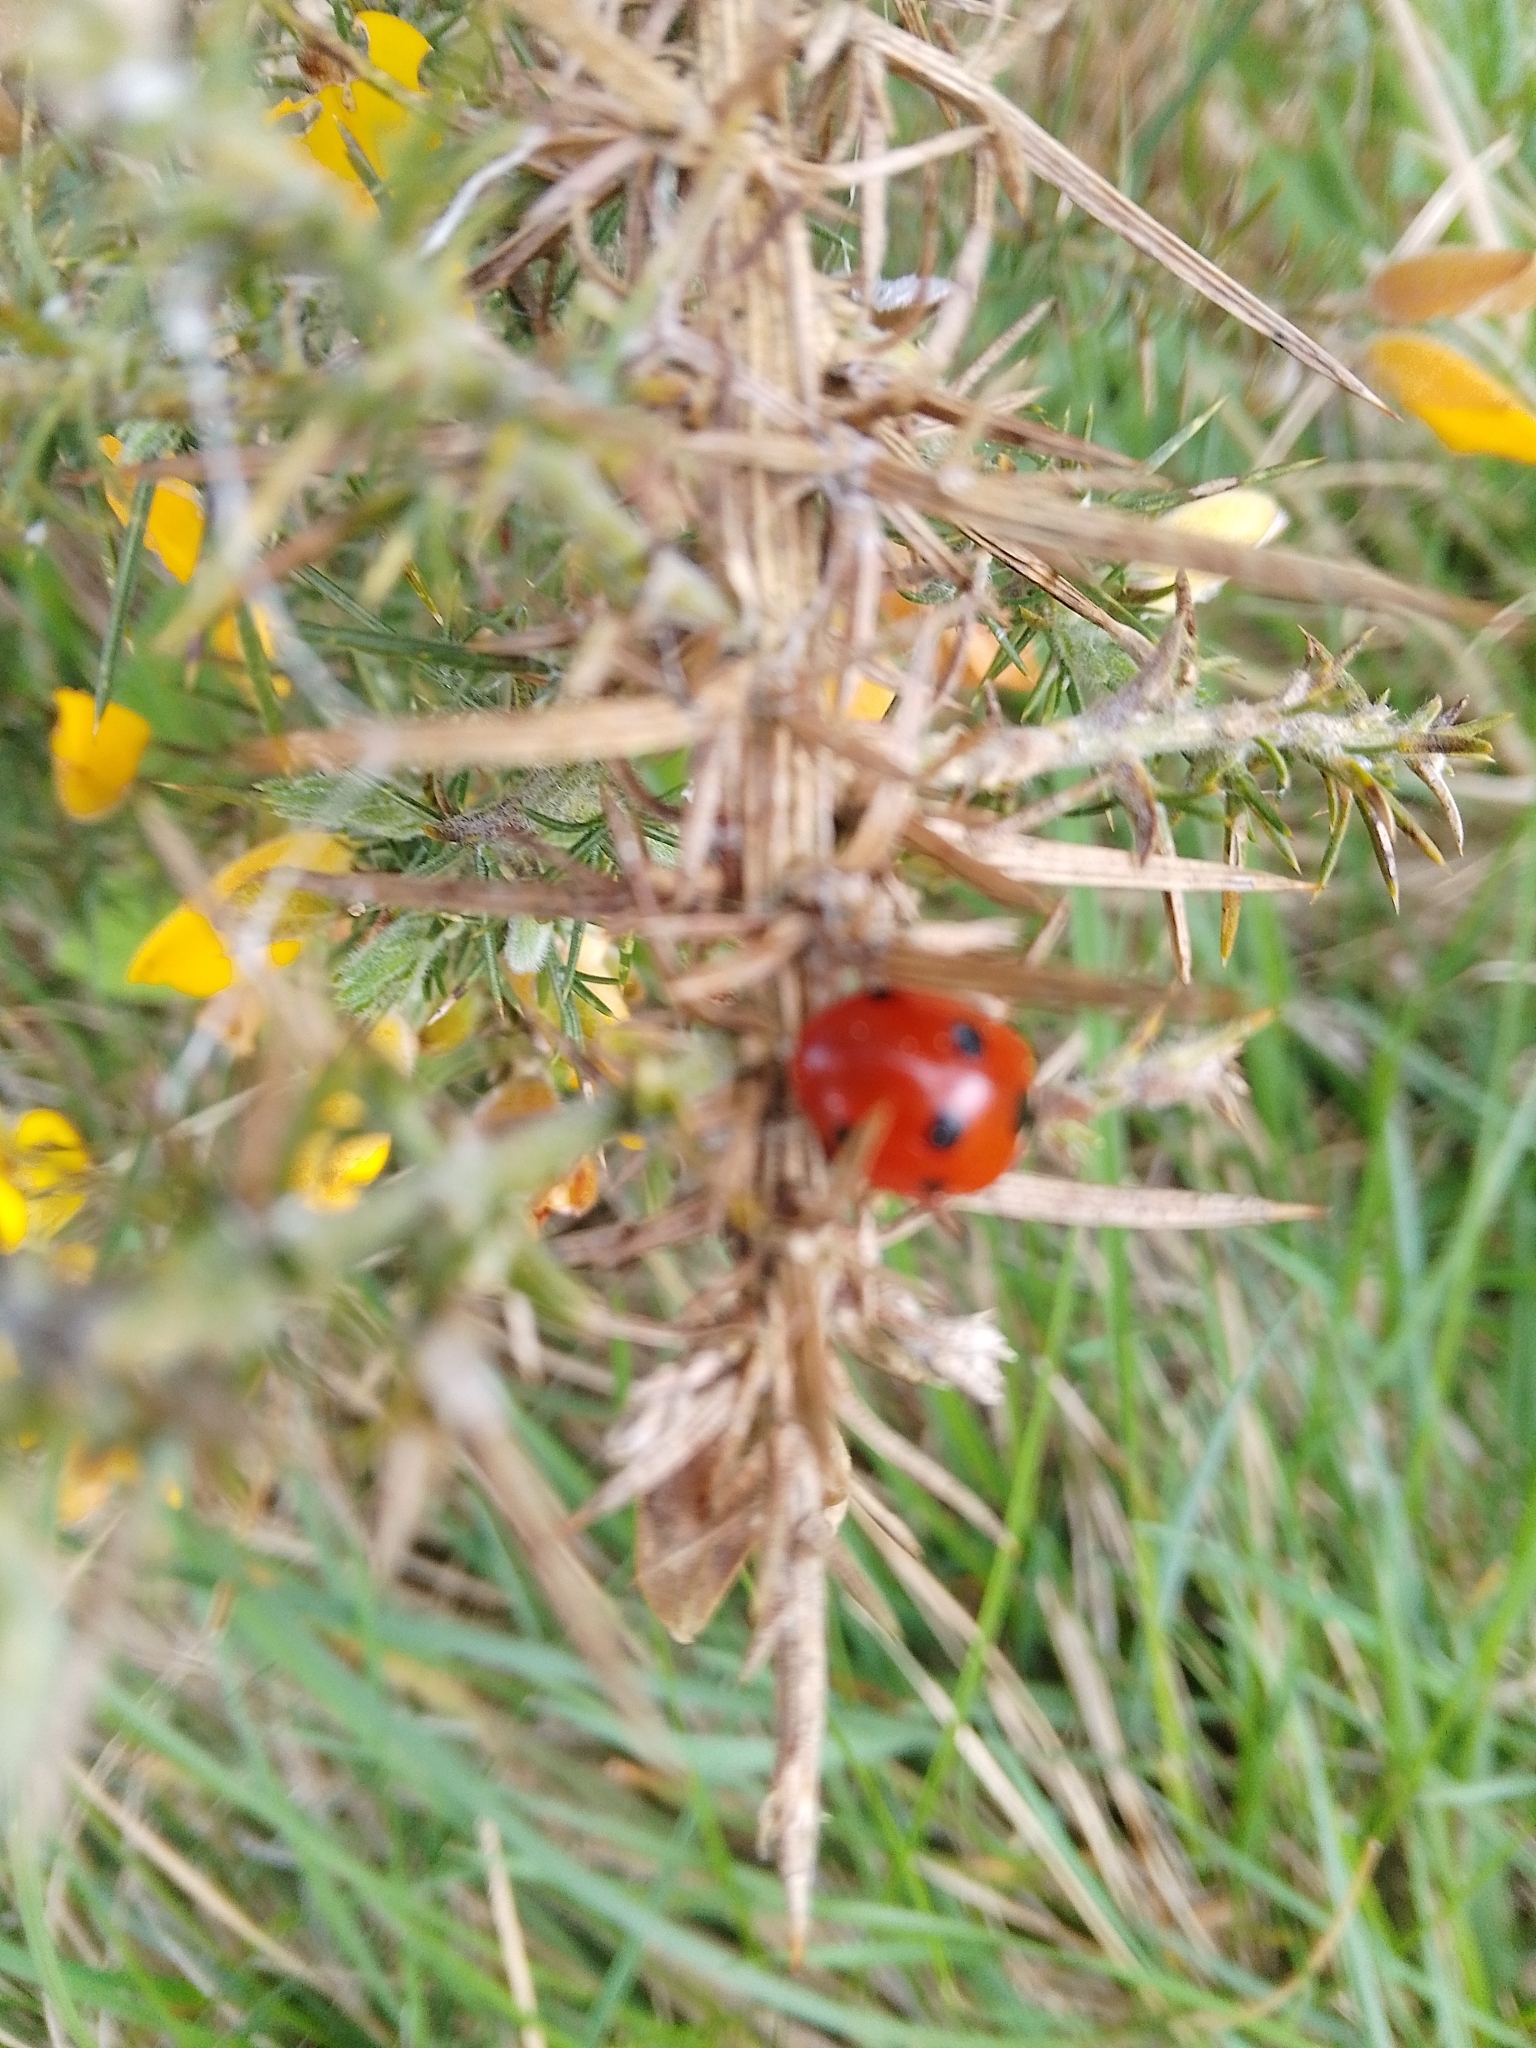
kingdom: Animalia
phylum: Arthropoda
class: Insecta
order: Coleoptera
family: Coccinellidae
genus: Coccinella
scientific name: Coccinella septempunctata
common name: Sevenspotted lady beetle
